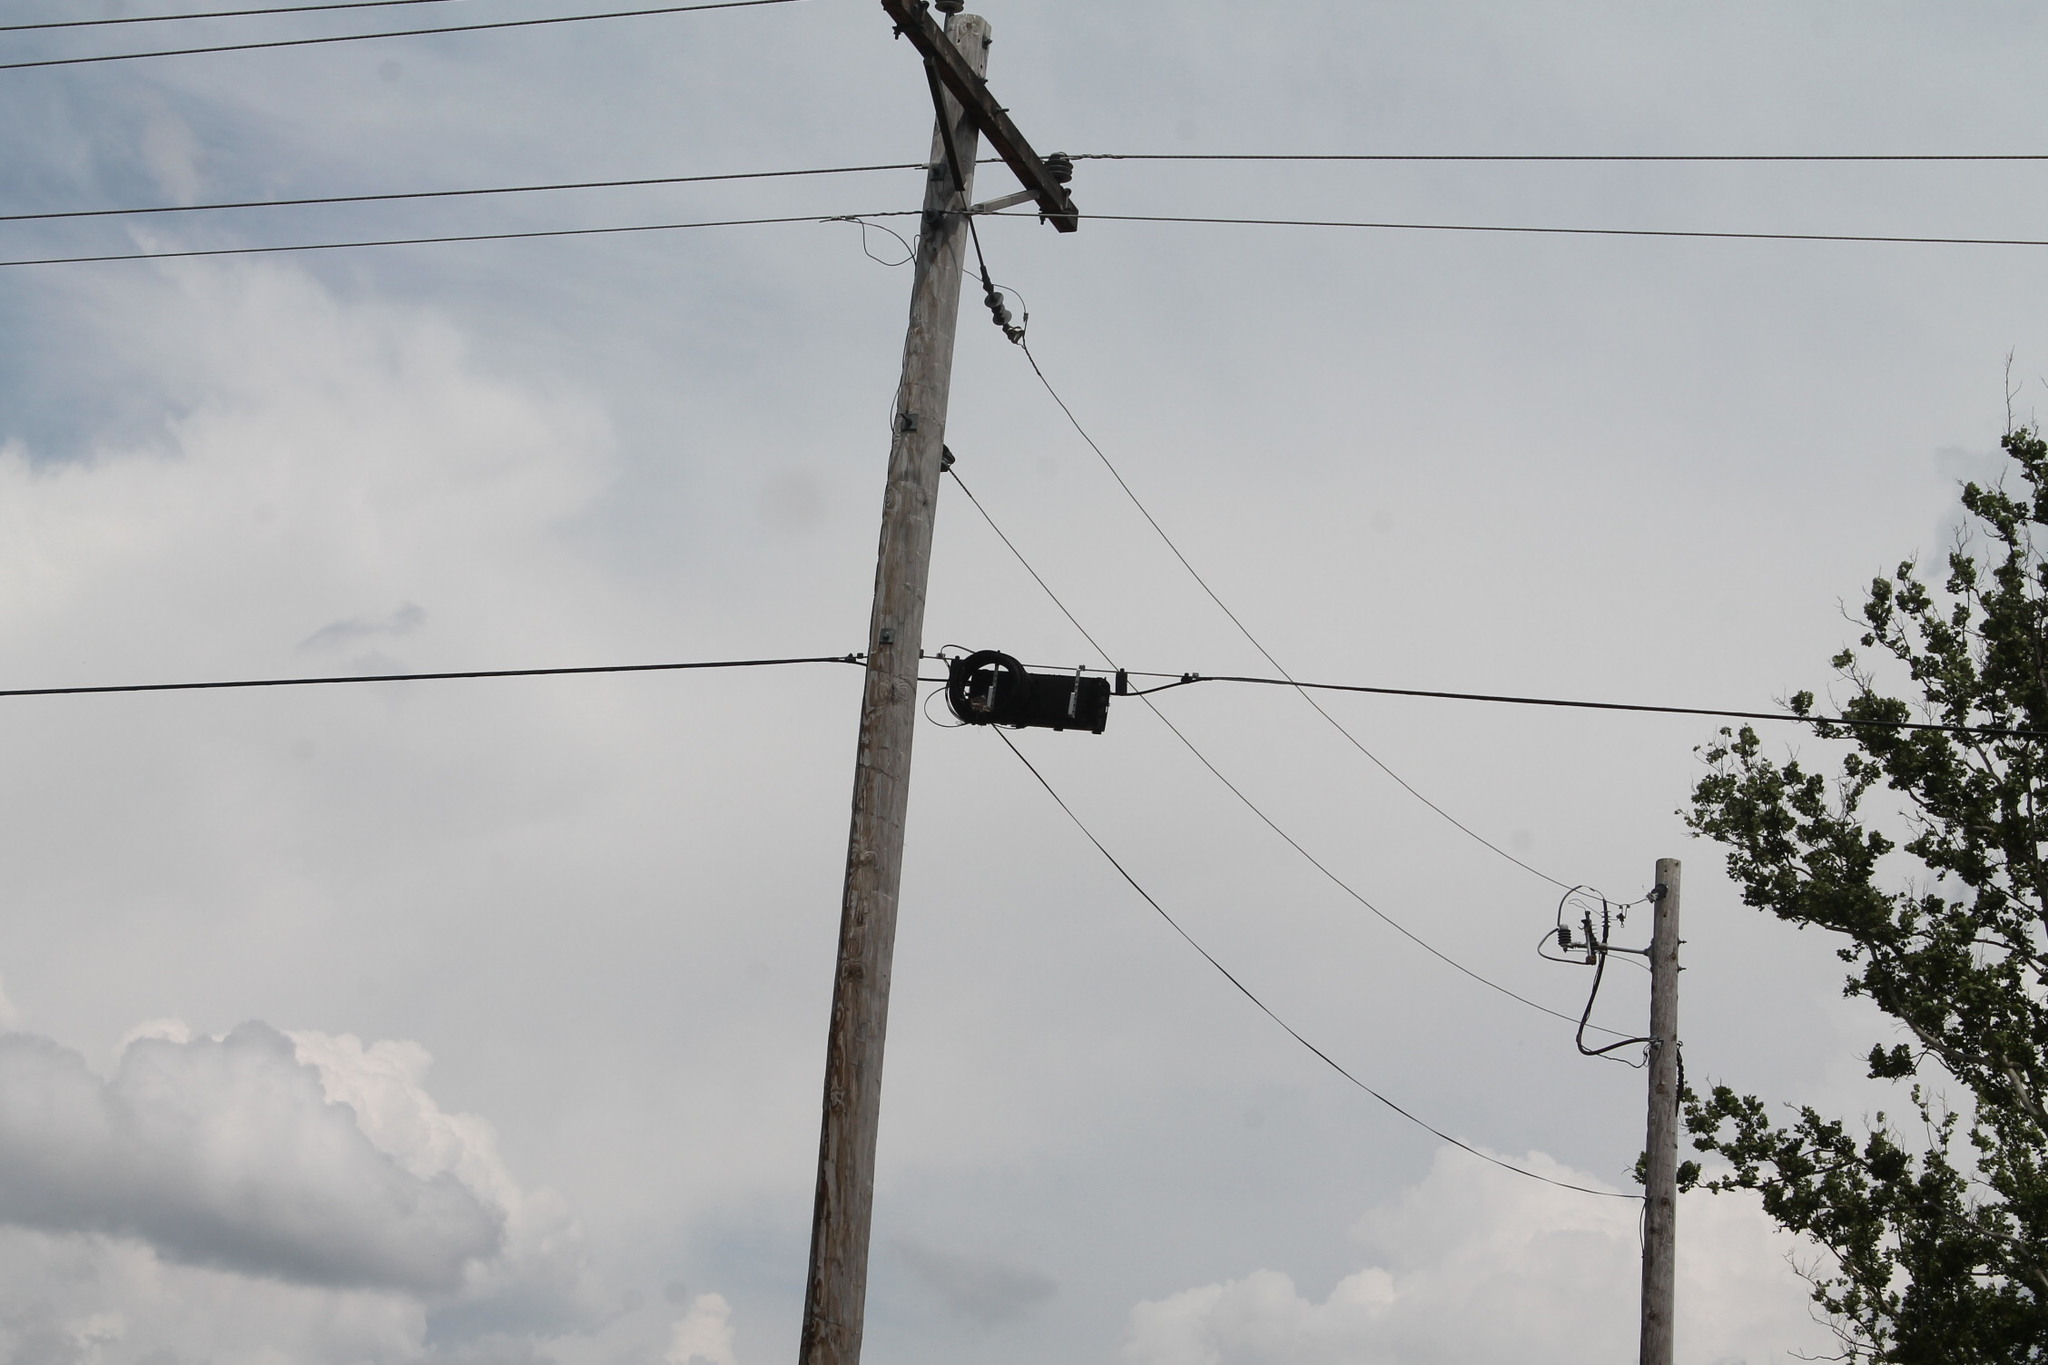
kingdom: Animalia
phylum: Chordata
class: Aves
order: Passeriformes
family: Tyrannidae
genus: Tyrannus
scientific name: Tyrannus tyrannus
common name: Eastern kingbird
